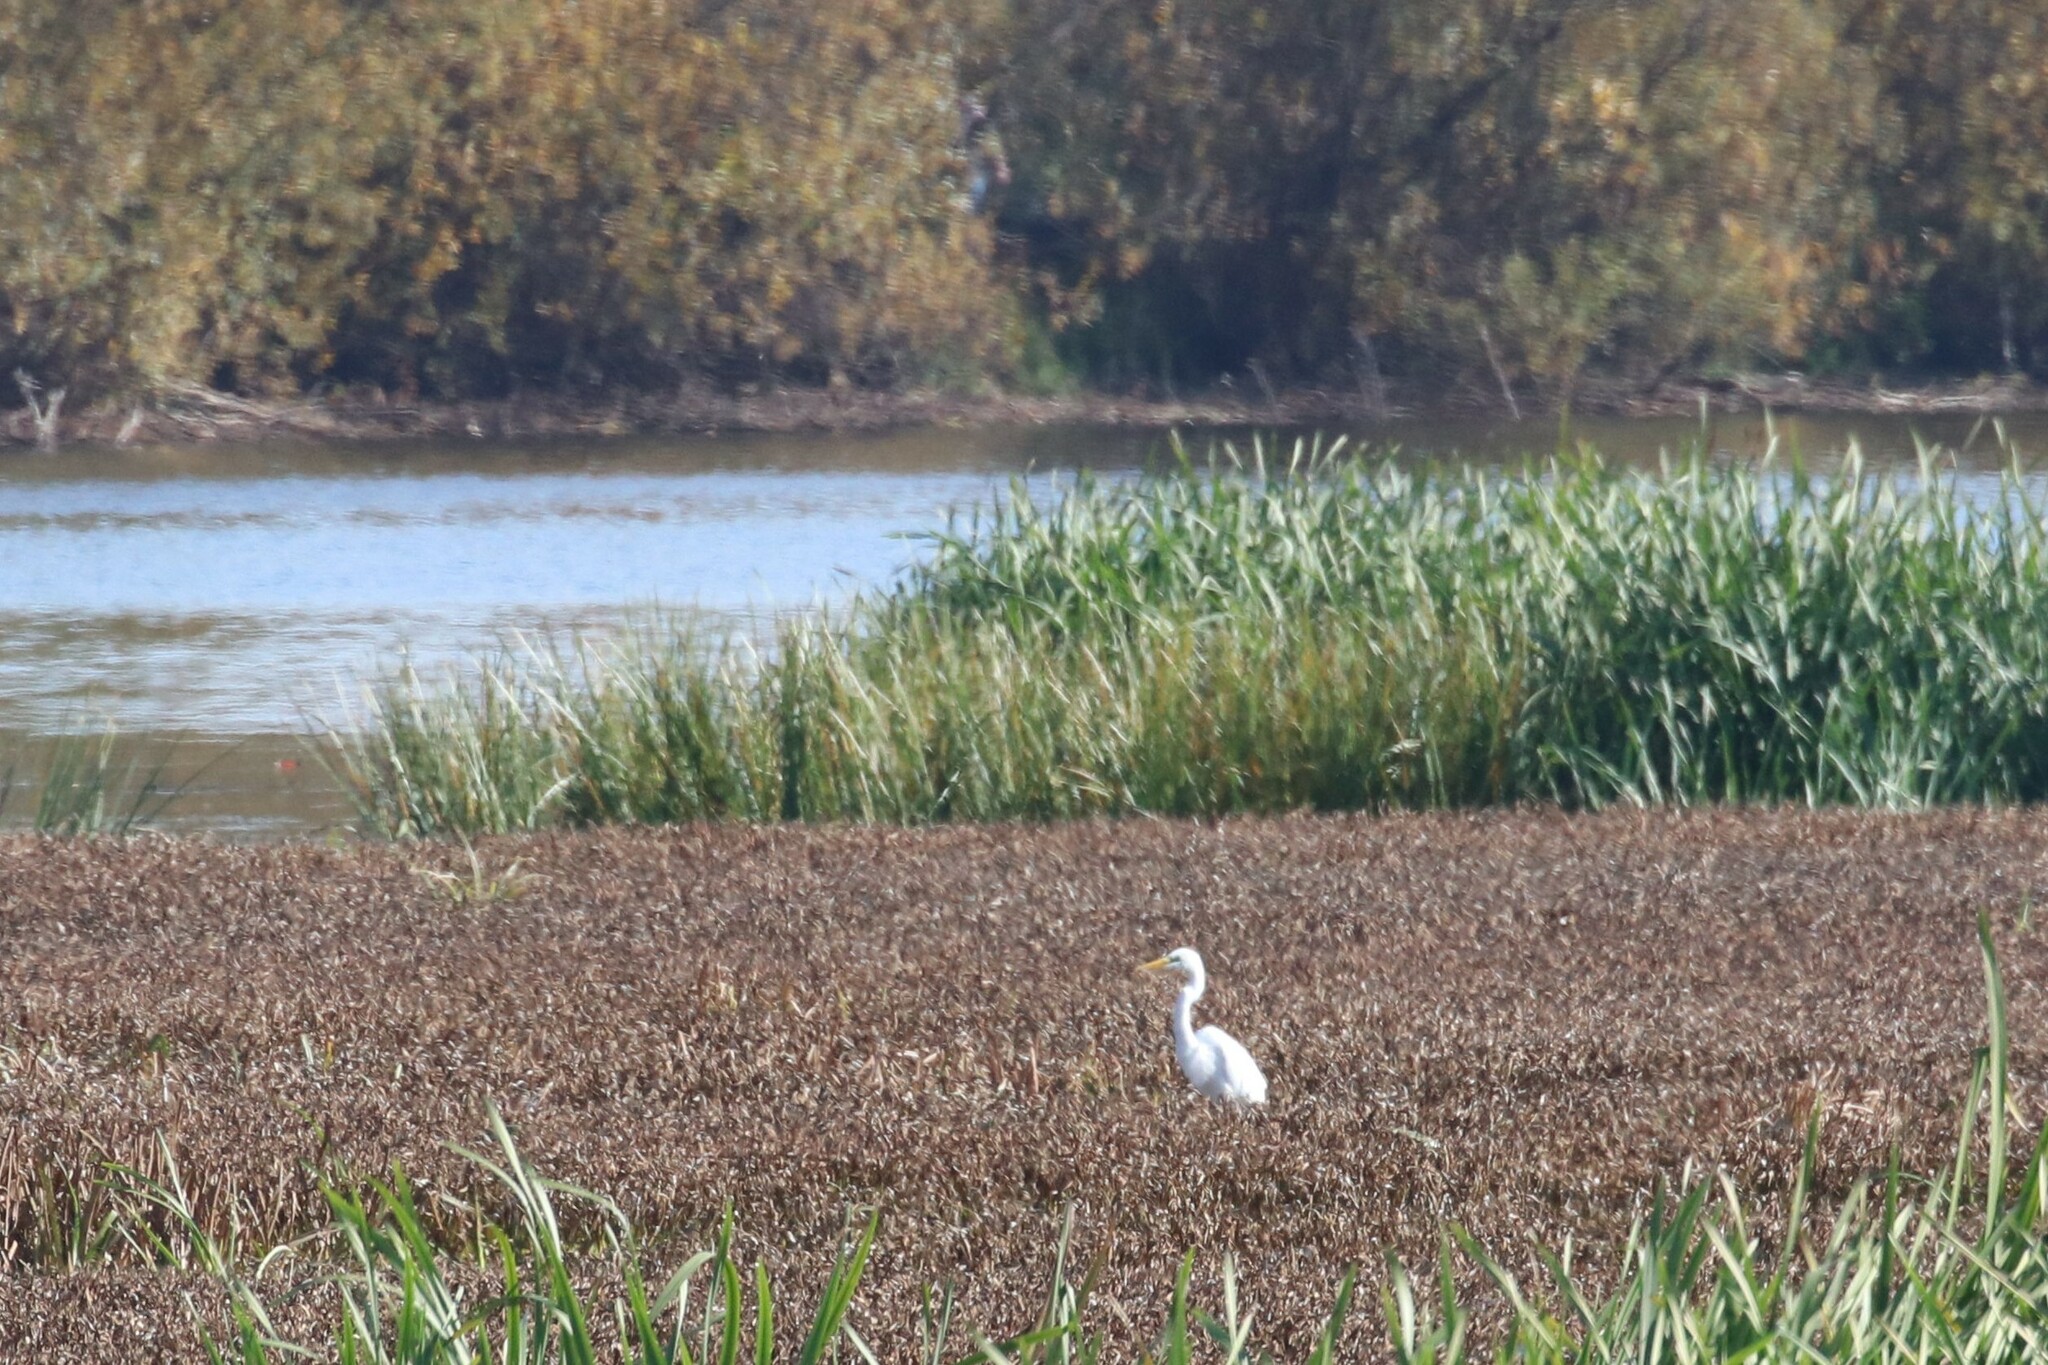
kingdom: Animalia
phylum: Chordata
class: Aves
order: Pelecaniformes
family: Ardeidae
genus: Ardea
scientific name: Ardea alba
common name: Great egret
